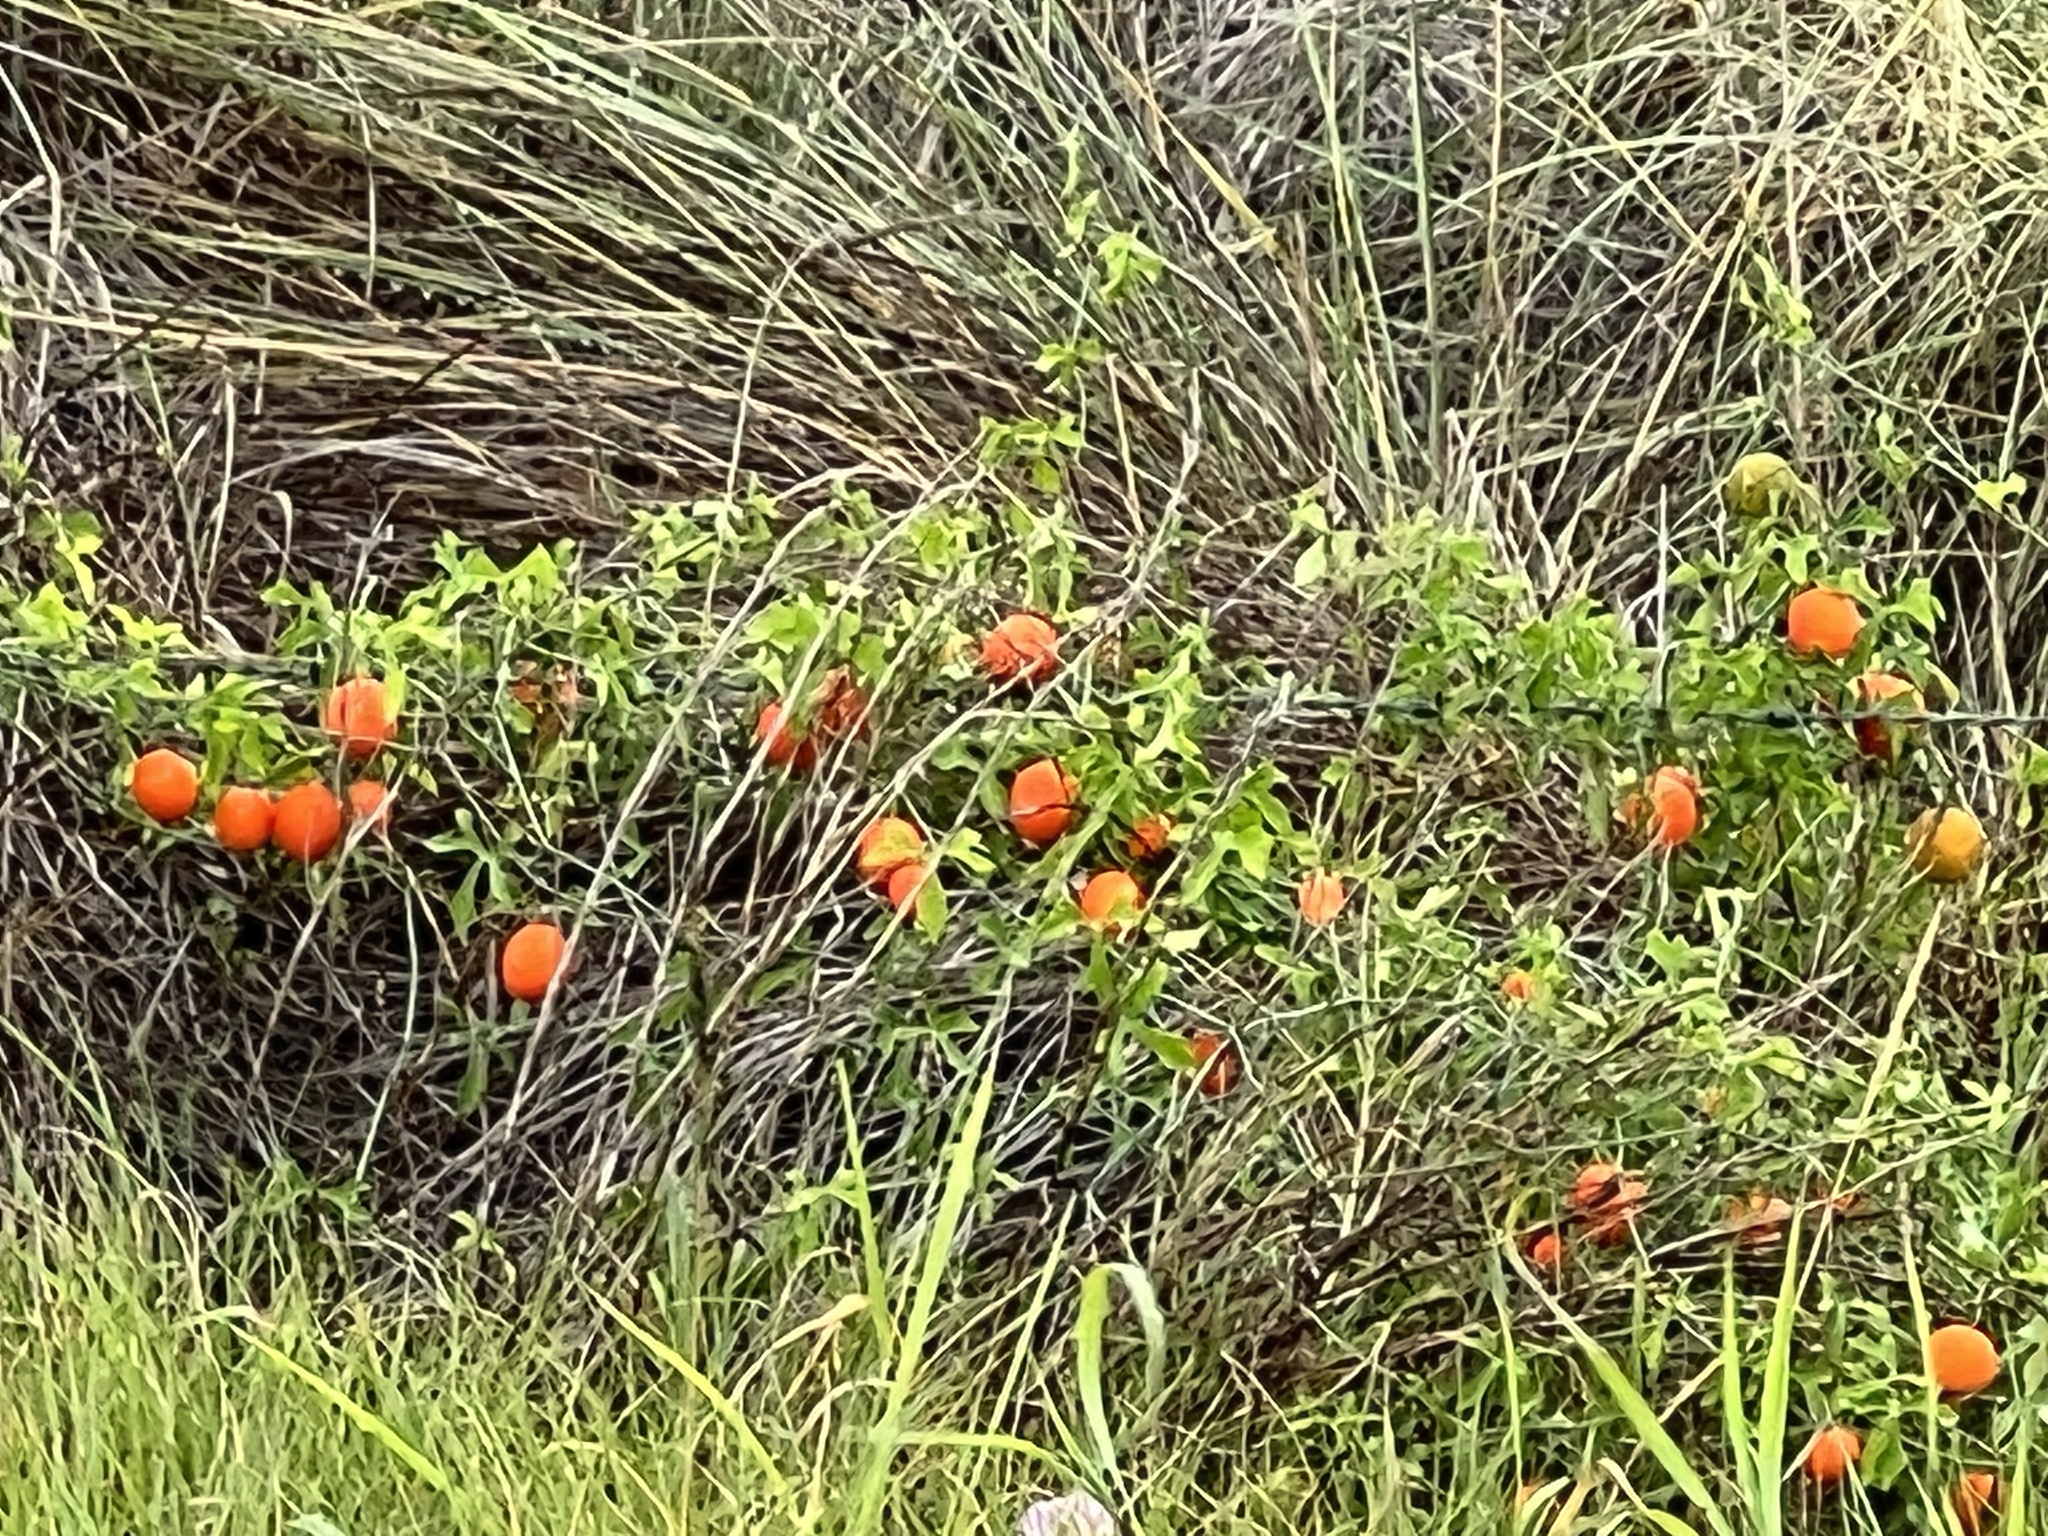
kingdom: Plantae
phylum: Tracheophyta
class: Magnoliopsida
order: Cucurbitales
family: Cucurbitaceae
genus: Ibervillea
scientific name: Ibervillea lindheimeri
